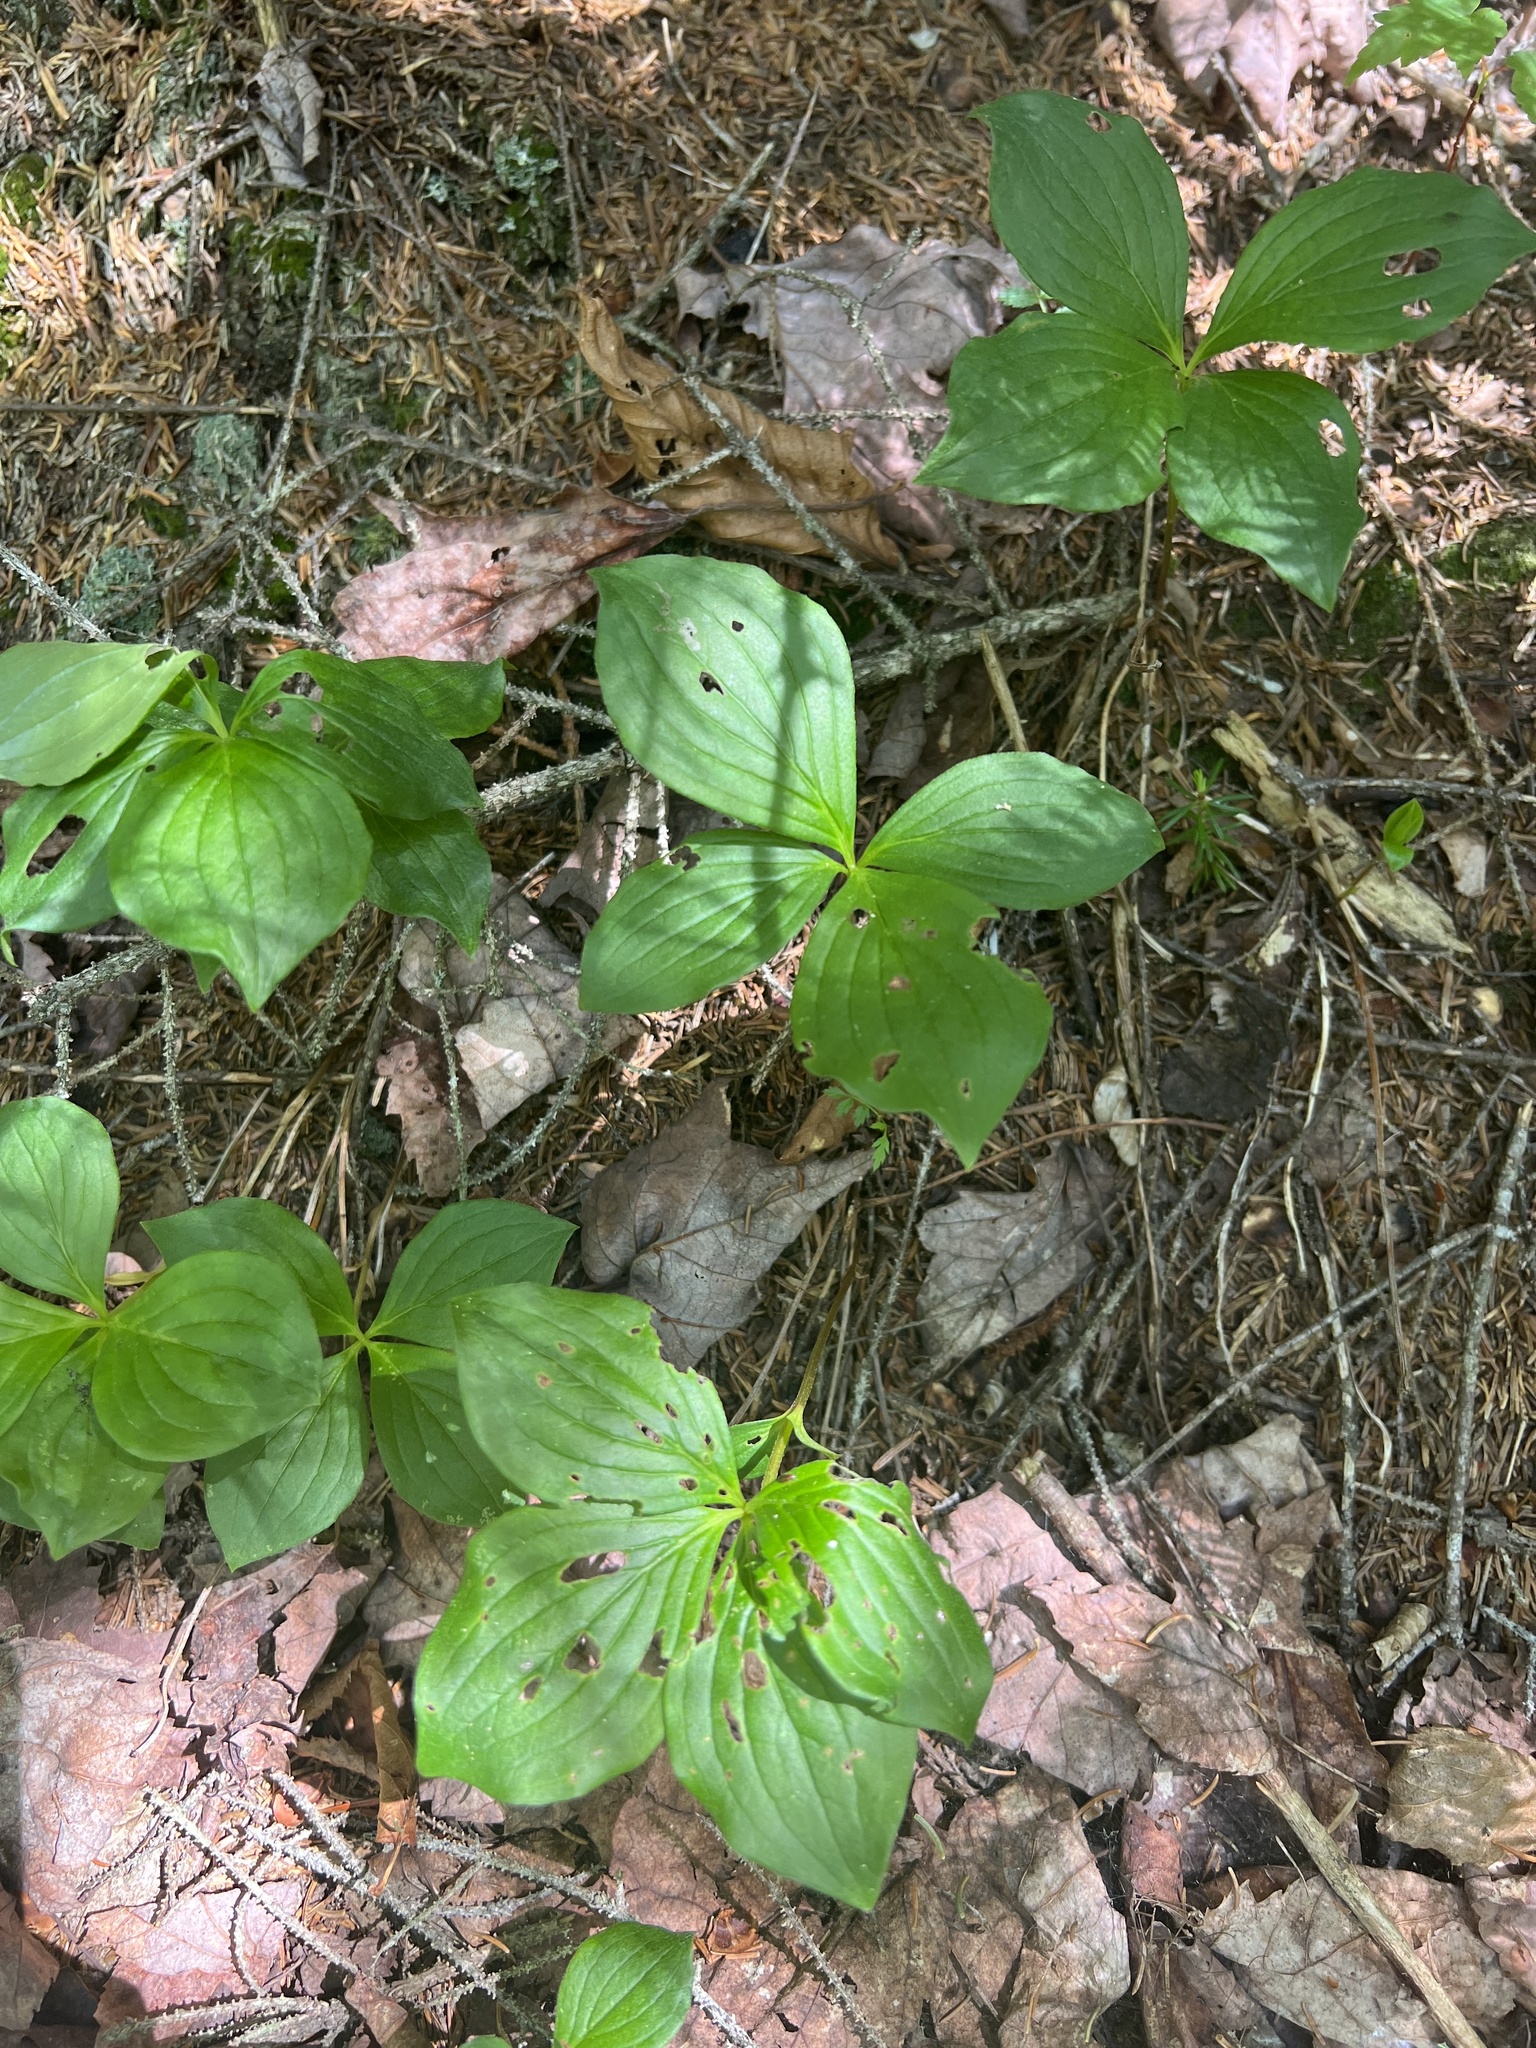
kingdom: Plantae
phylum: Tracheophyta
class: Magnoliopsida
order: Cornales
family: Cornaceae
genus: Cornus
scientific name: Cornus canadensis
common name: Creeping dogwood
